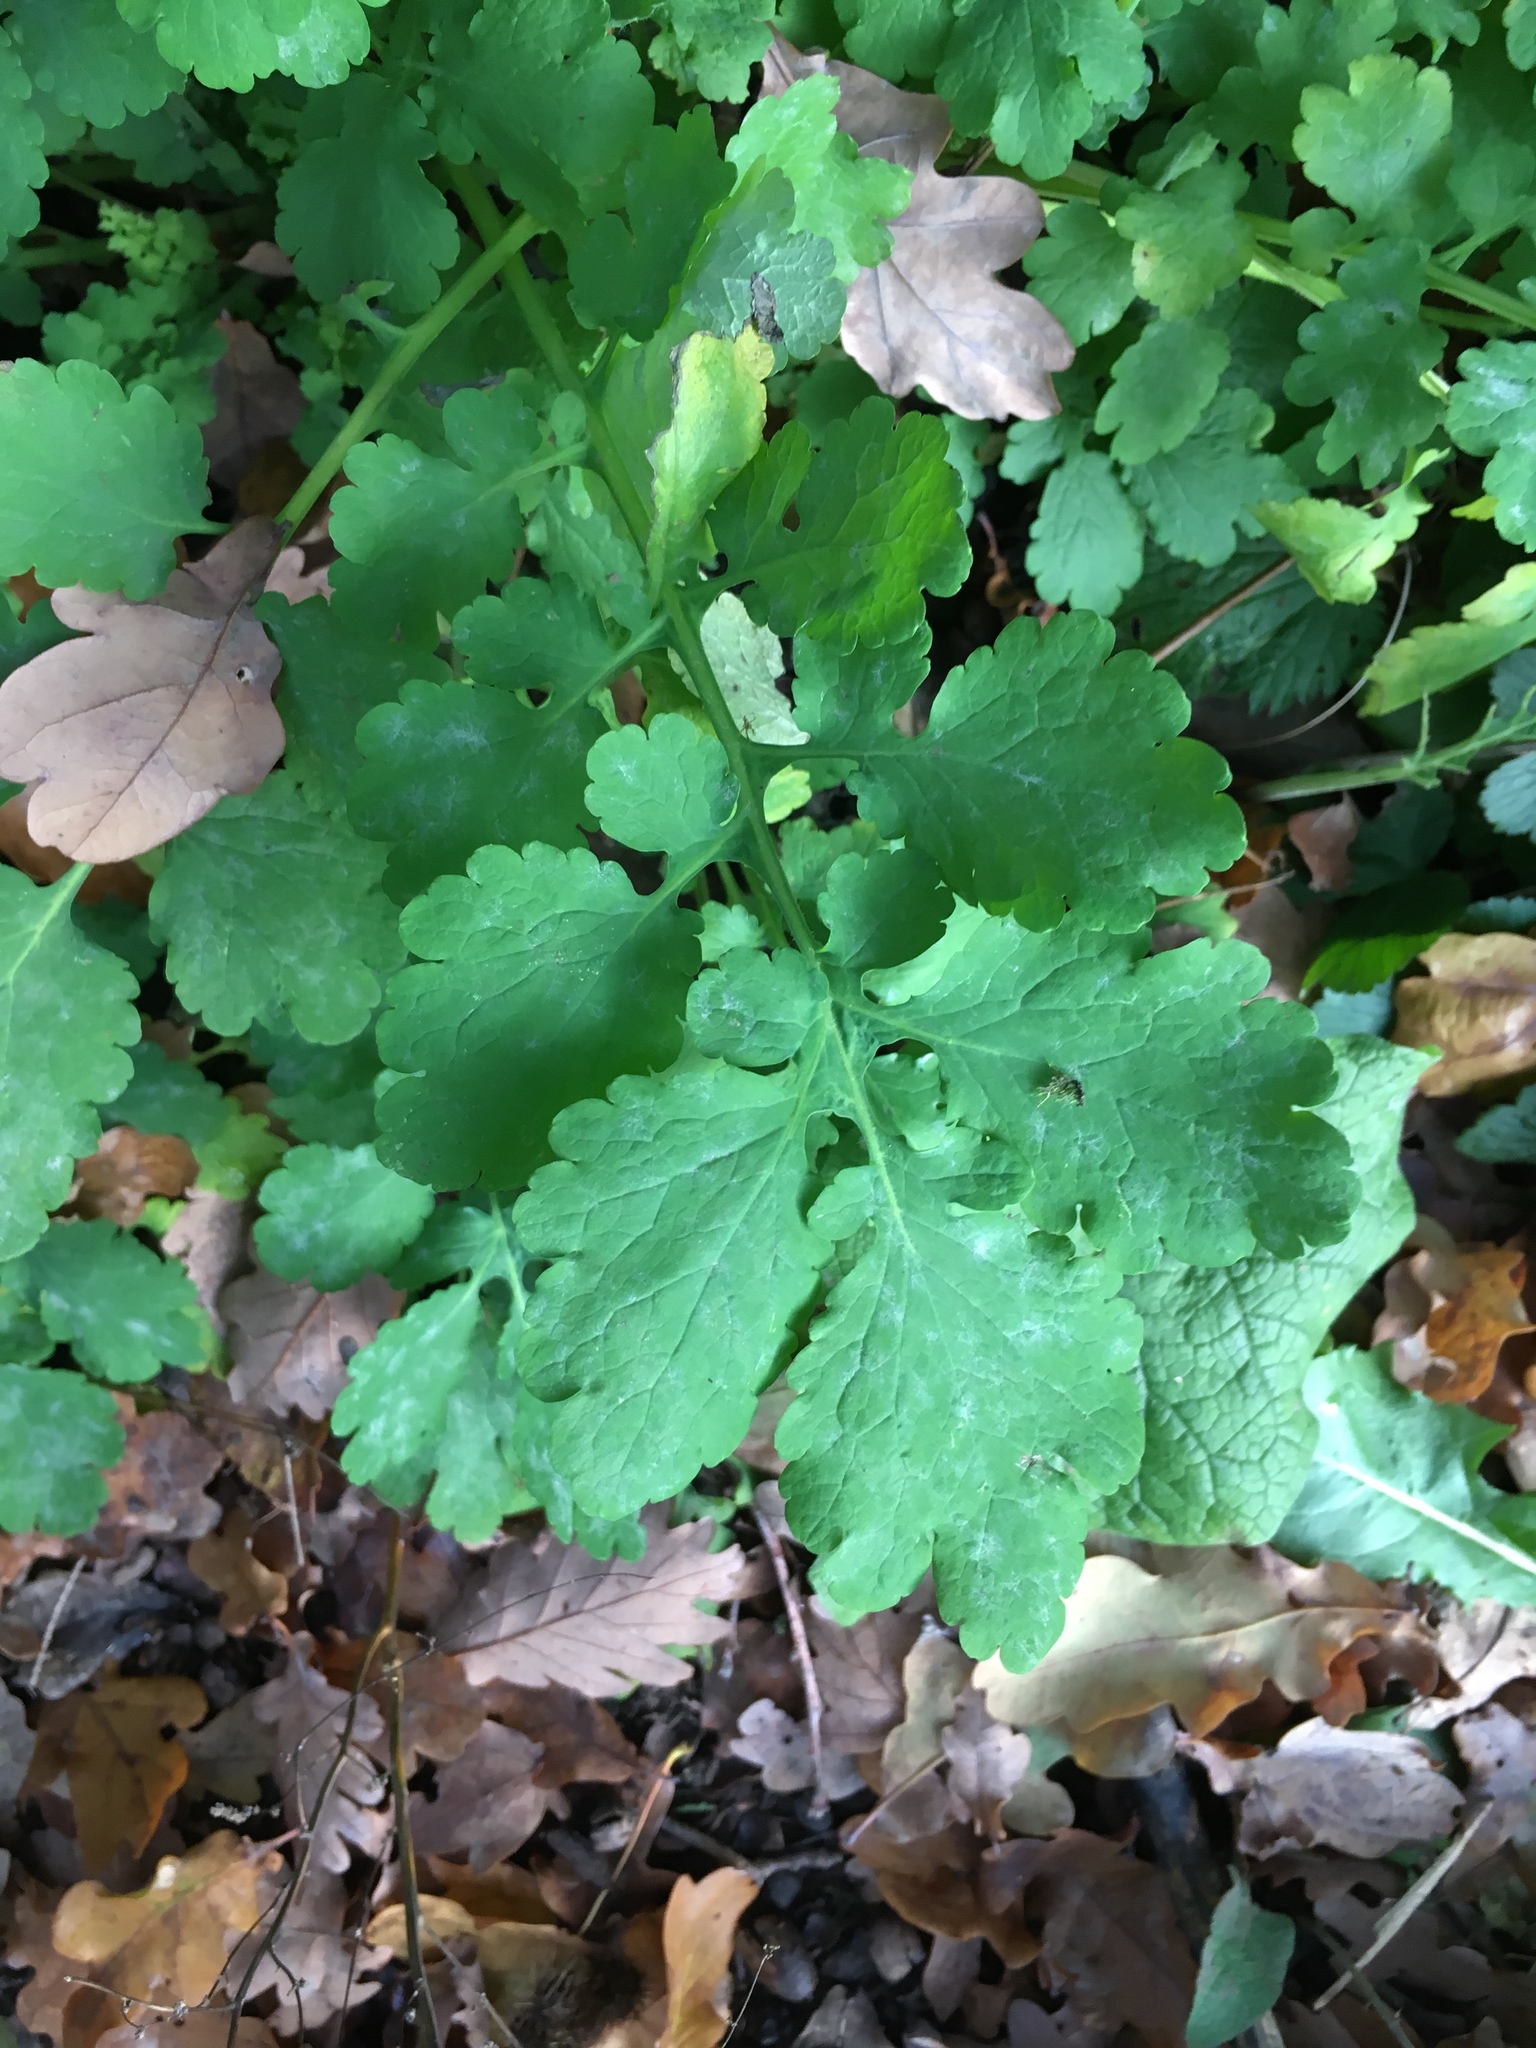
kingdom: Plantae
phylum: Tracheophyta
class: Magnoliopsida
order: Ranunculales
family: Papaveraceae
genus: Chelidonium
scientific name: Chelidonium majus
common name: Greater celandine
